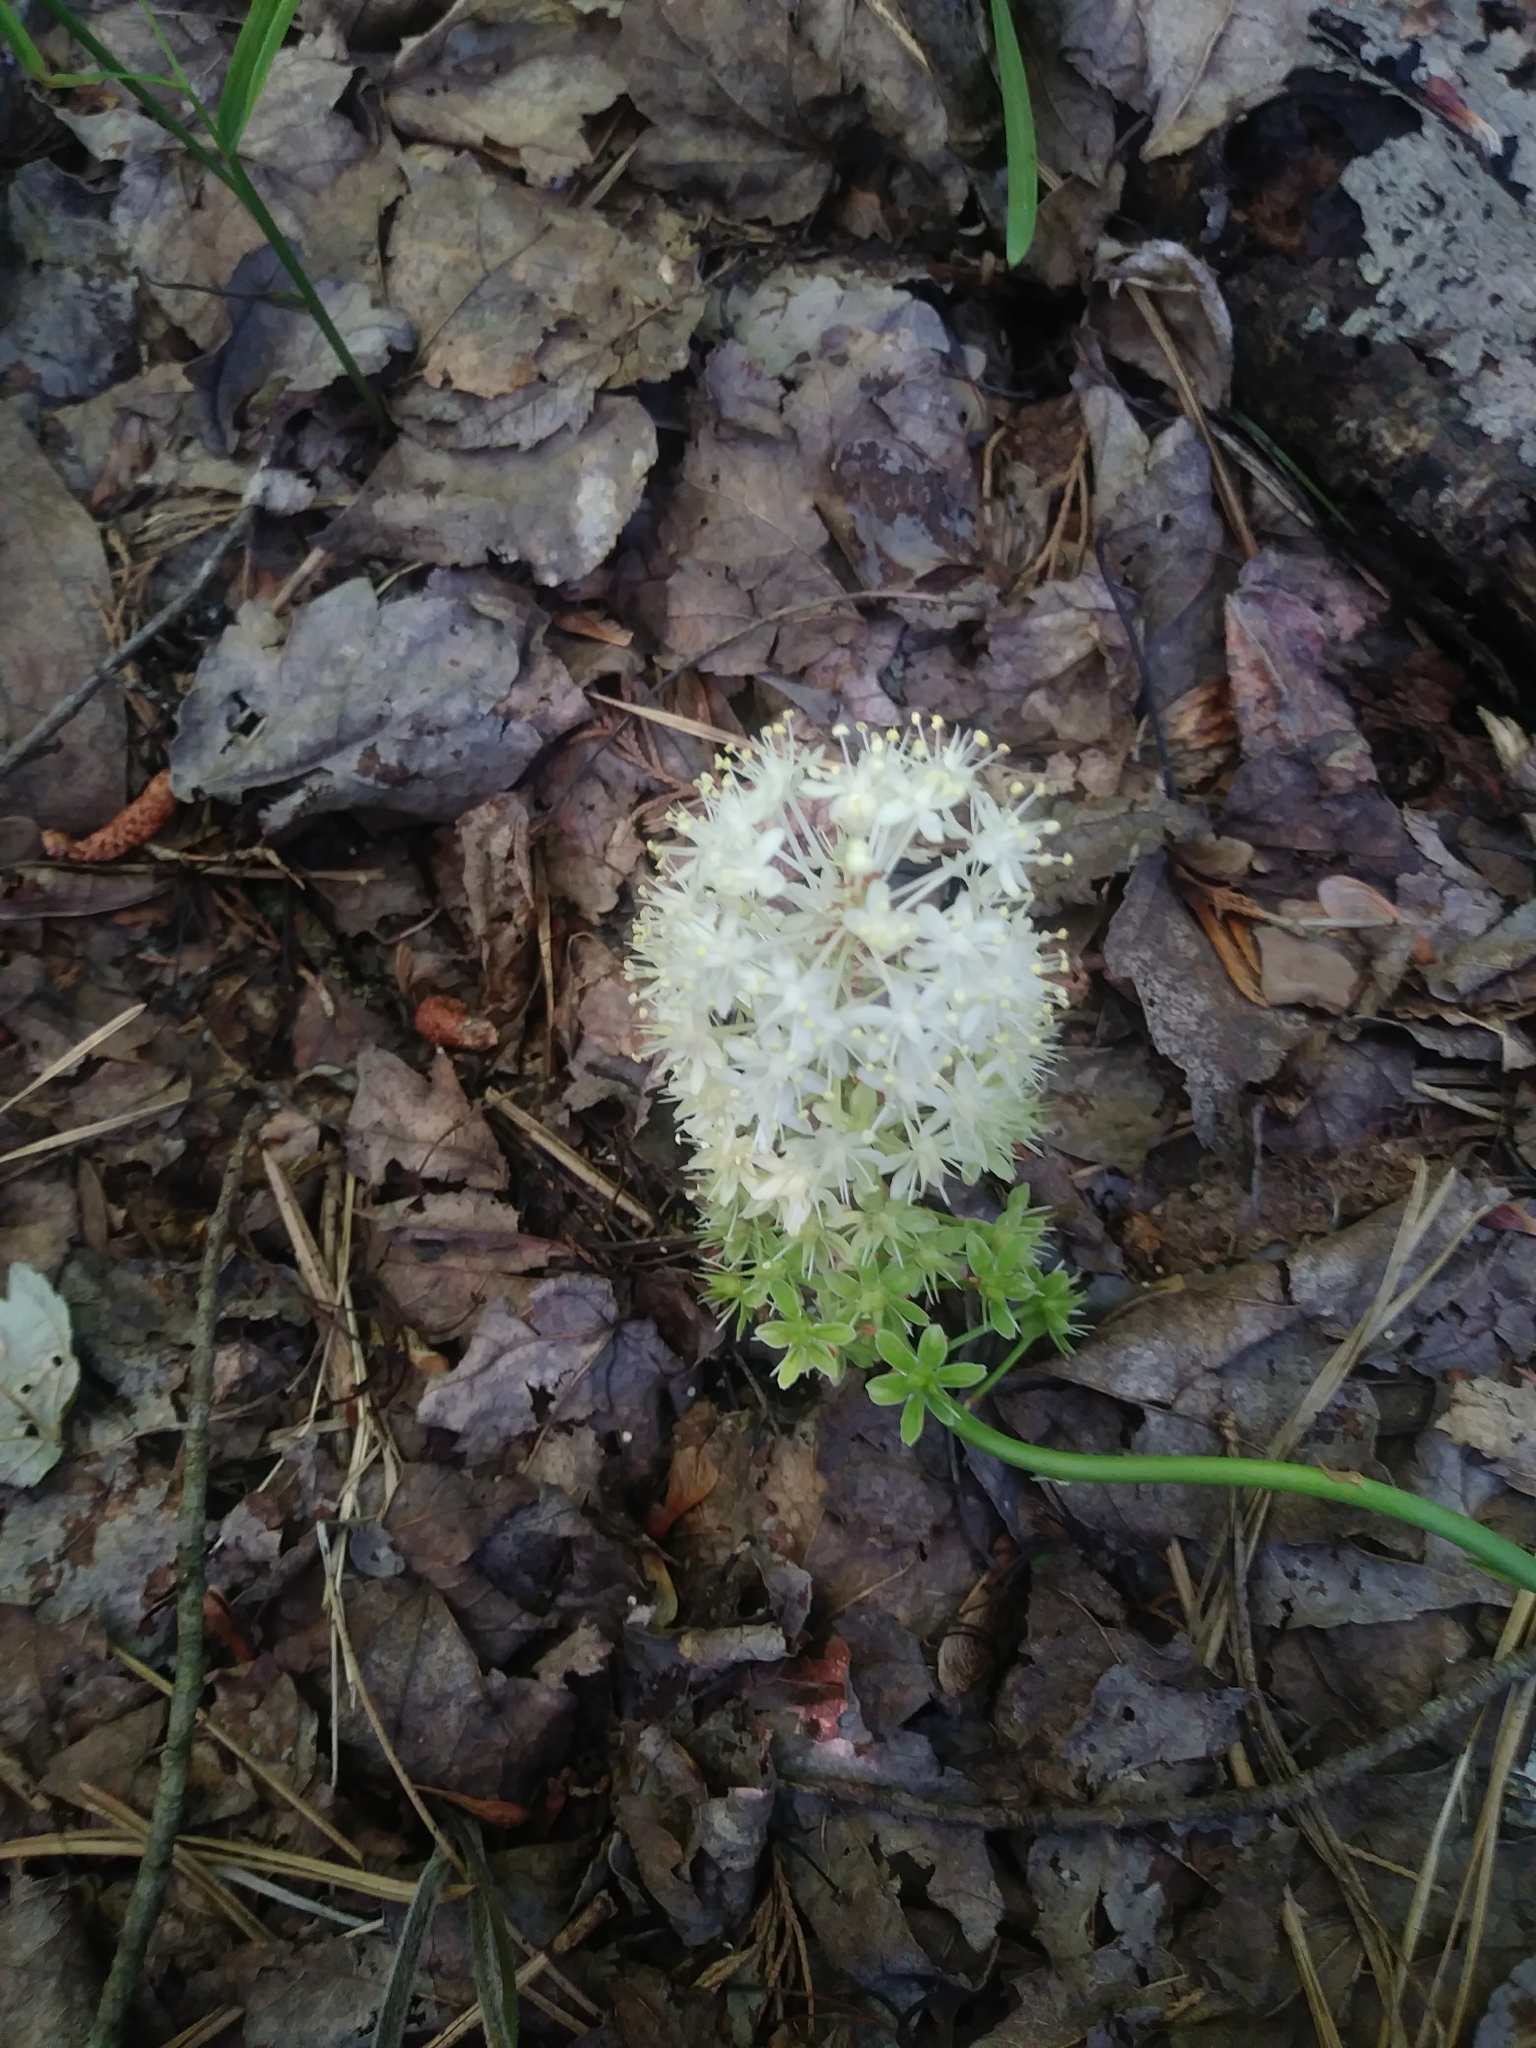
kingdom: Plantae
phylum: Tracheophyta
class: Liliopsida
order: Liliales
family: Melanthiaceae
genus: Amianthium
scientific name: Amianthium muscitoxicum
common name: Fly-poison
